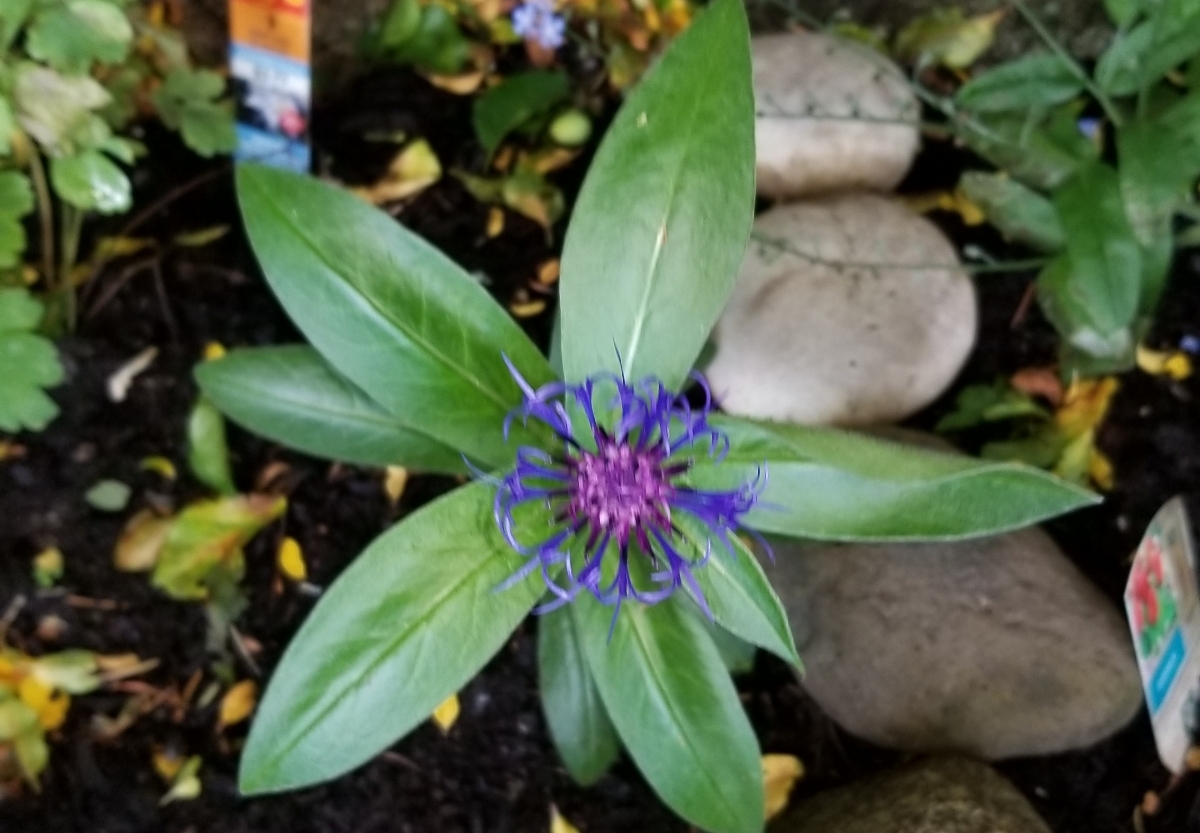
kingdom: Plantae
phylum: Tracheophyta
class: Magnoliopsida
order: Asterales
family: Asteraceae
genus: Centaurea
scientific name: Centaurea montana
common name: Perennial cornflower
